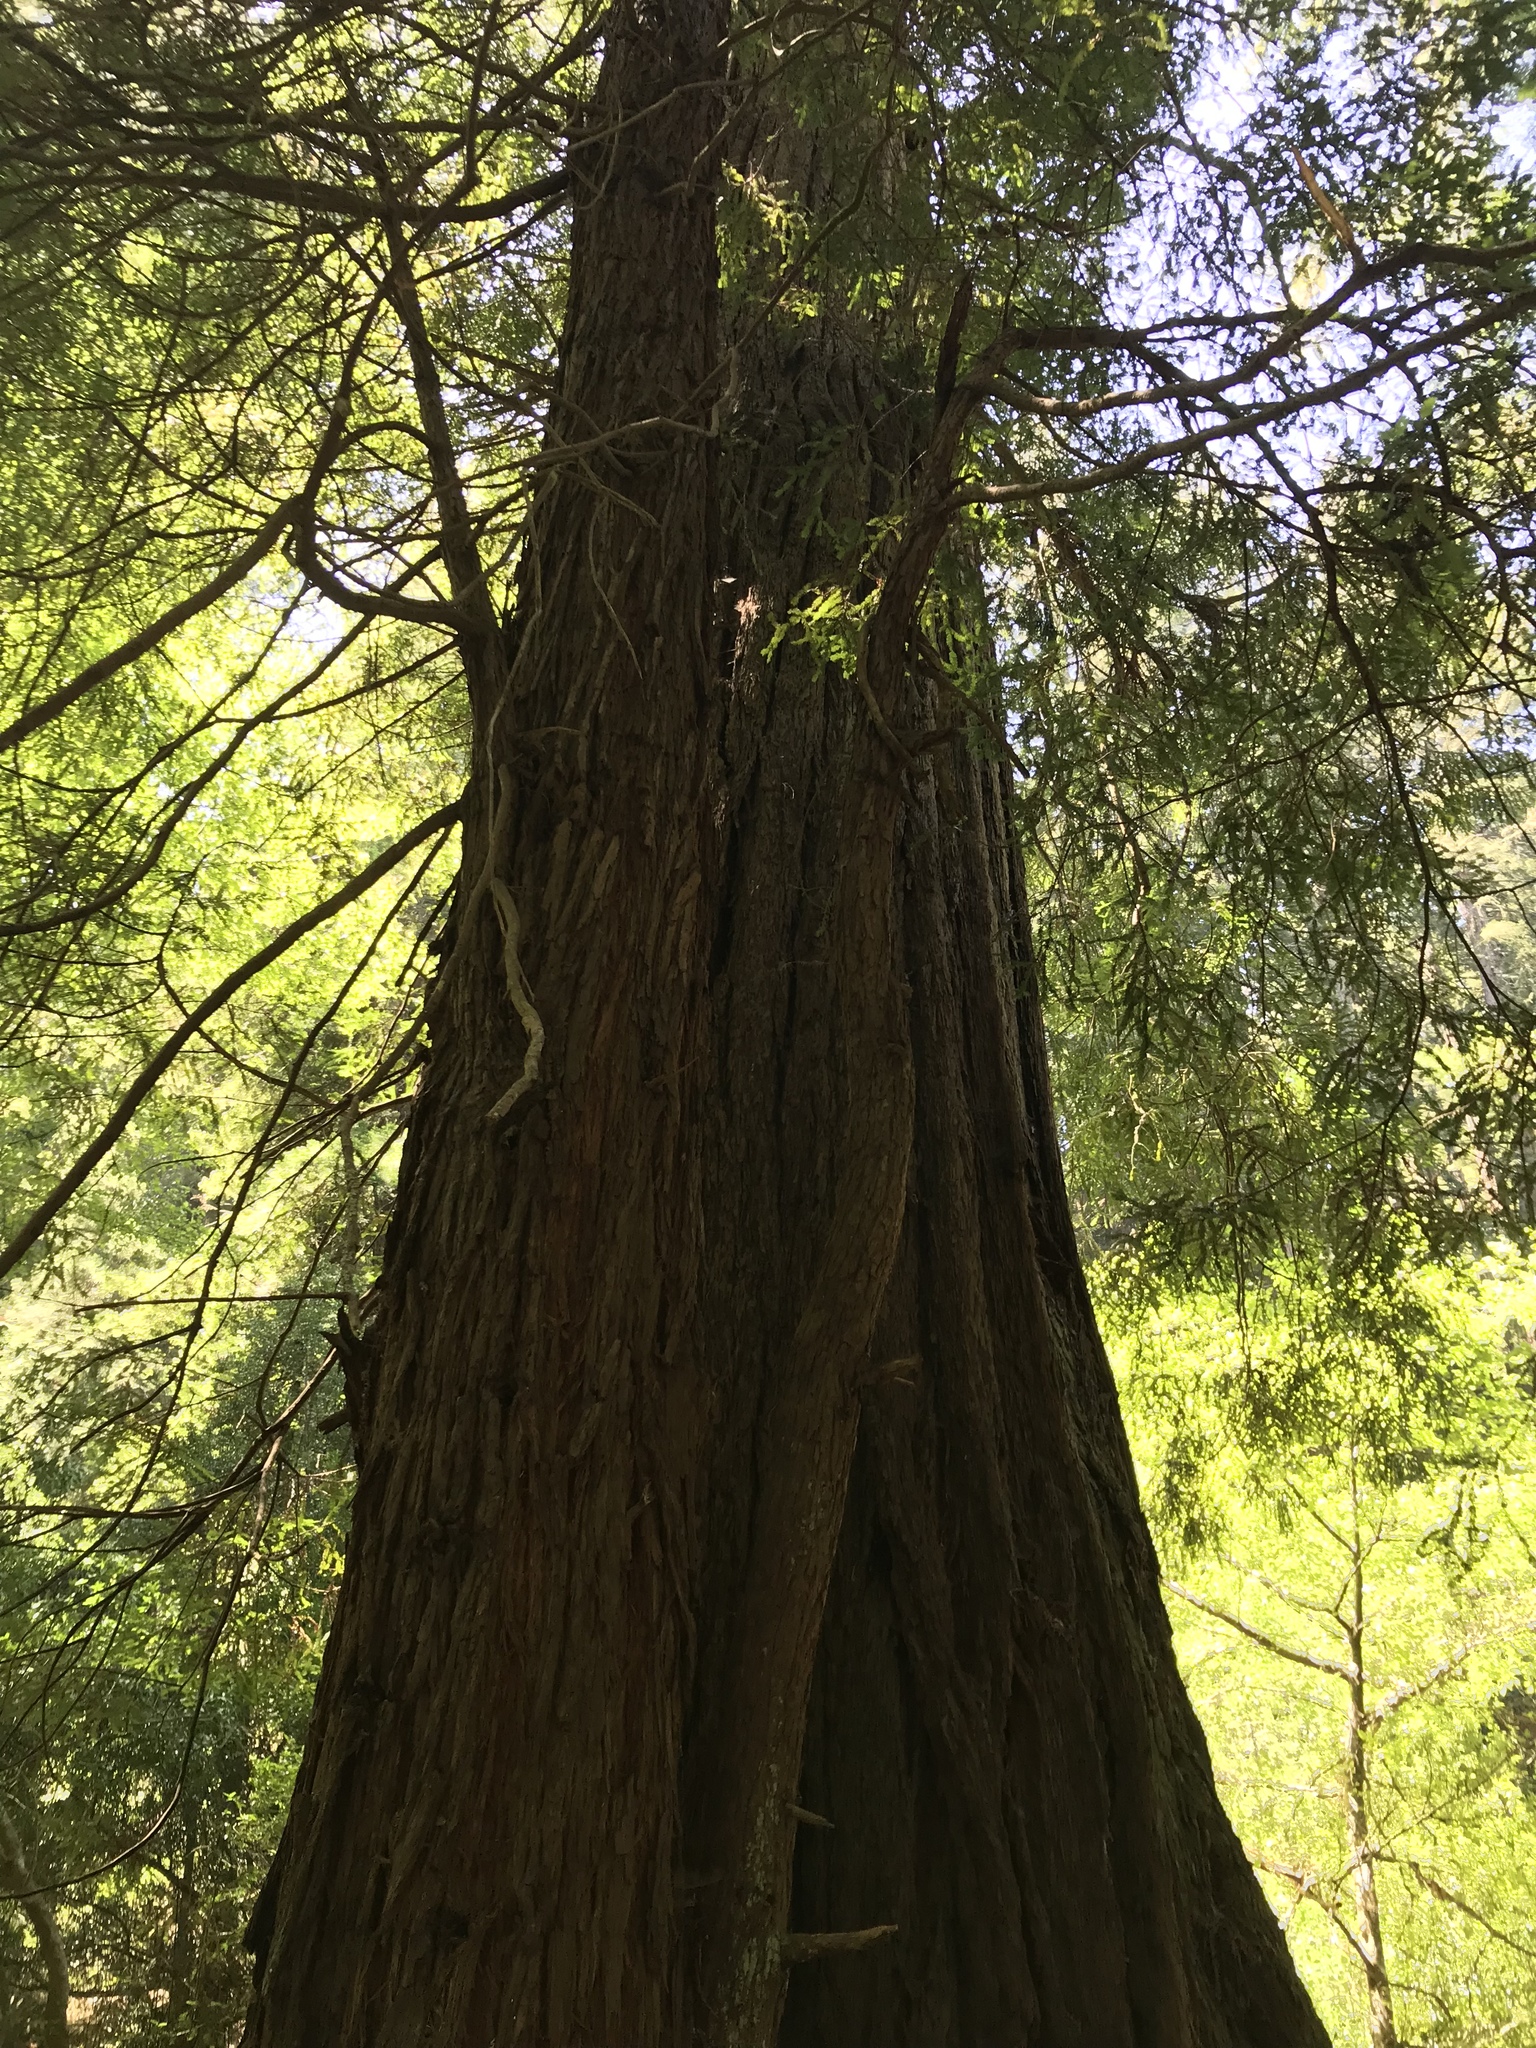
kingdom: Plantae
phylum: Tracheophyta
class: Pinopsida
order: Pinales
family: Cupressaceae
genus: Sequoia
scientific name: Sequoia sempervirens
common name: Coast redwood
